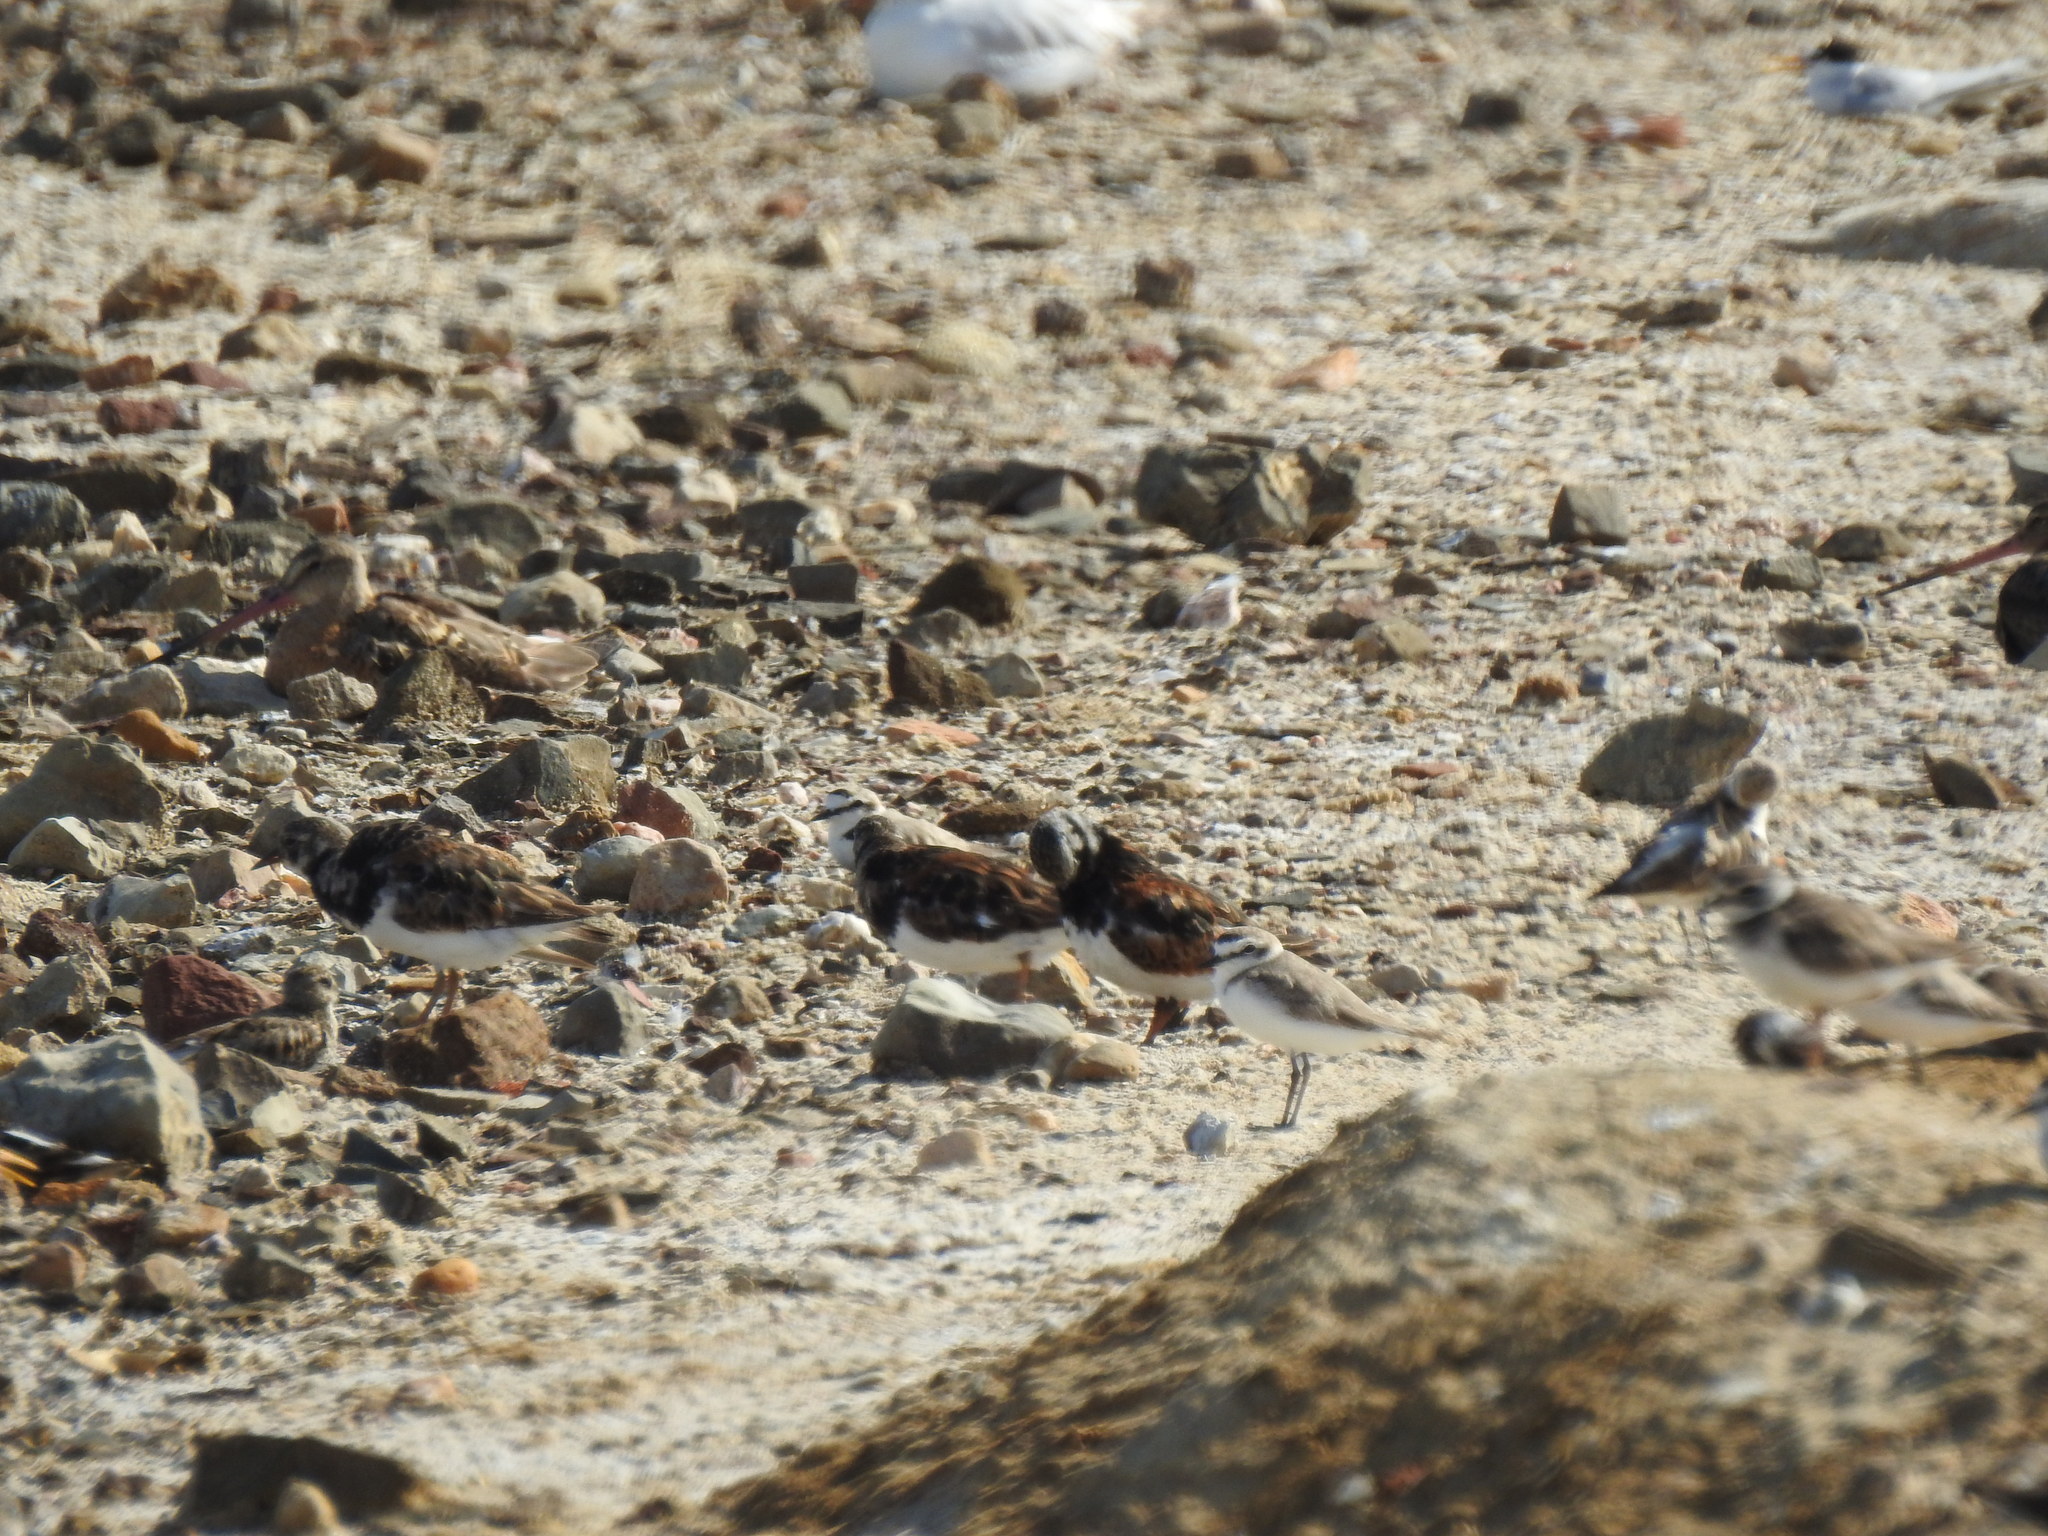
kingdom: Animalia
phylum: Chordata
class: Aves
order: Charadriiformes
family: Scolopacidae
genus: Arenaria
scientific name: Arenaria interpres
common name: Ruddy turnstone
